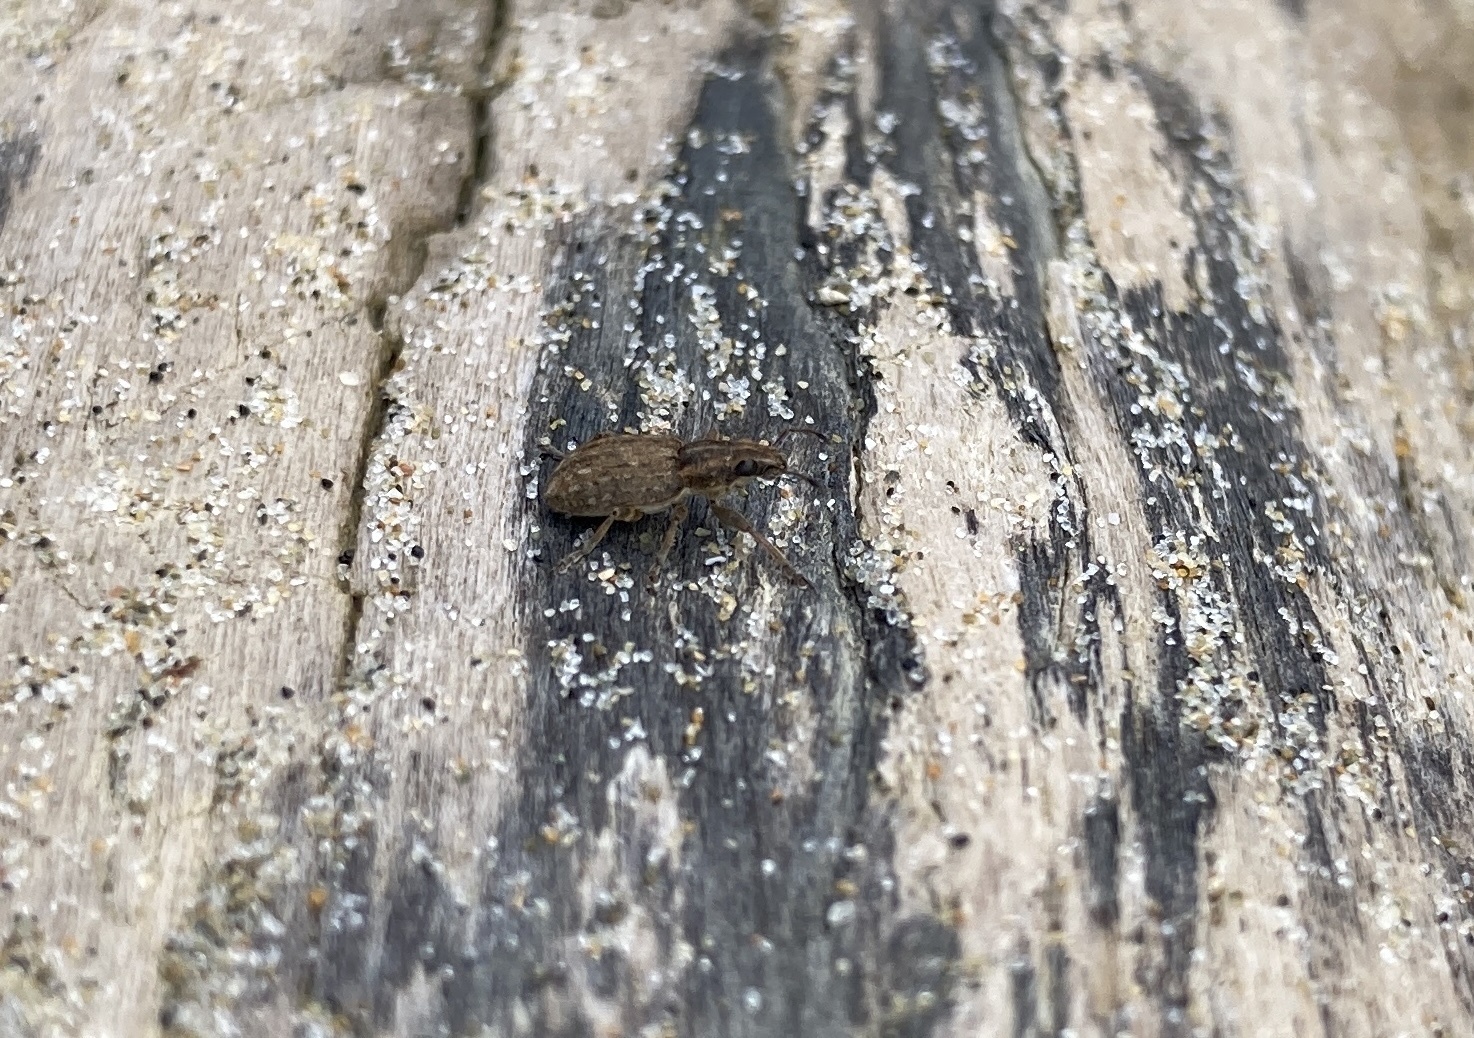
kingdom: Animalia
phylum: Arthropoda
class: Insecta
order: Coleoptera
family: Curculionidae
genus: Sitona
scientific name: Sitona obsoletus
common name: Weevil
